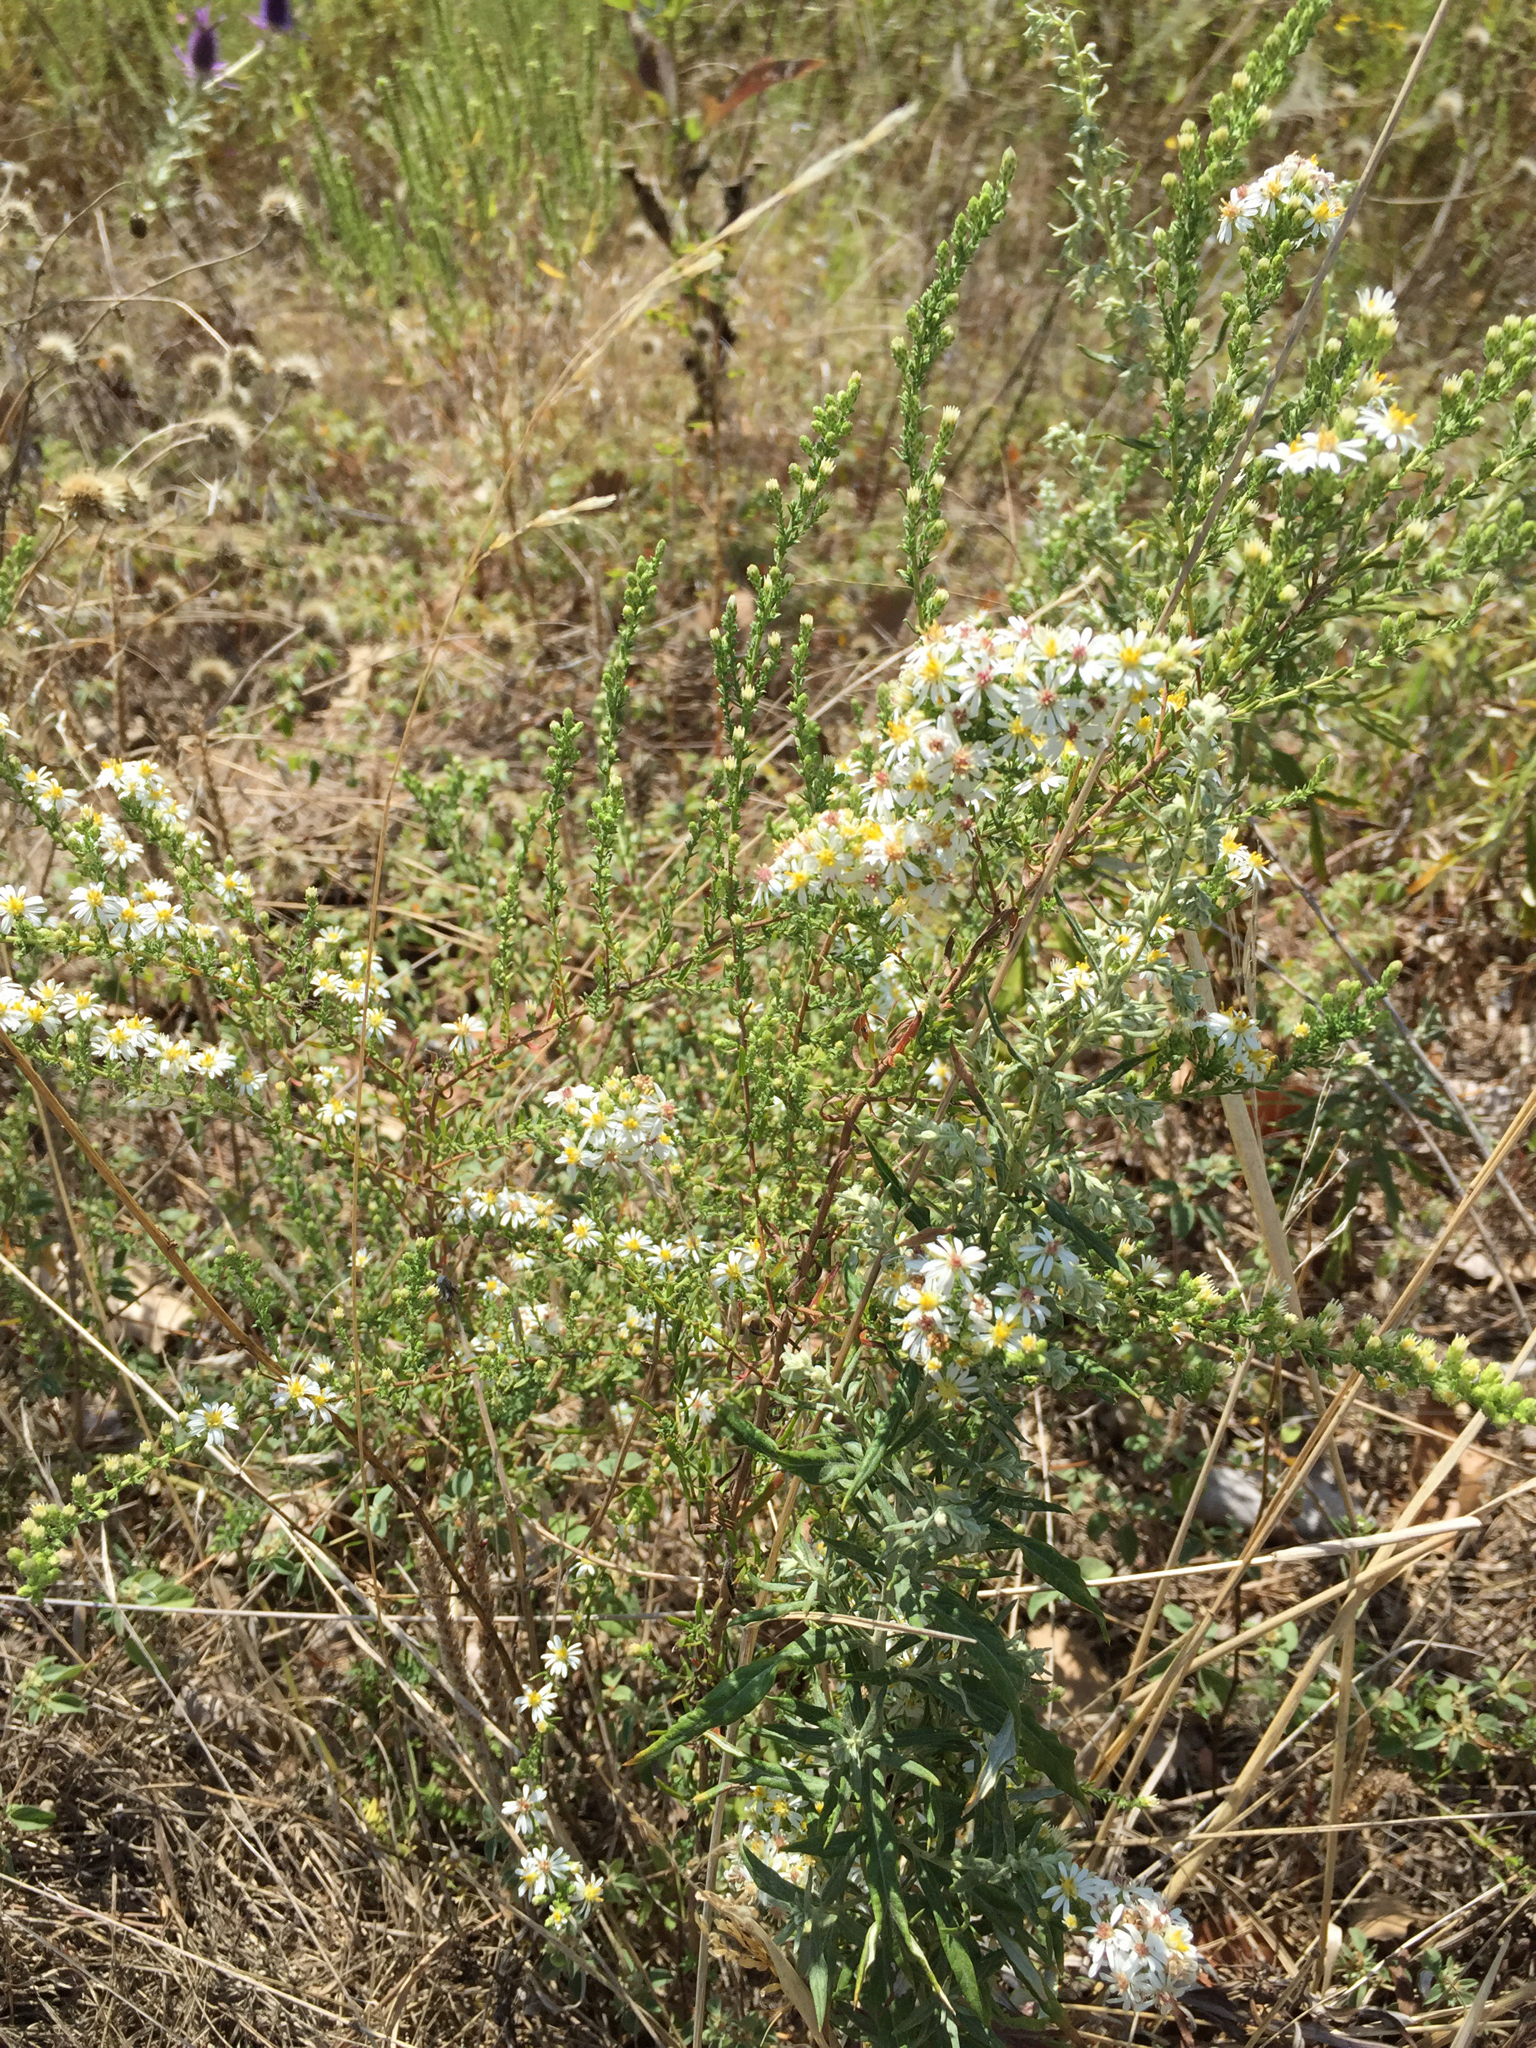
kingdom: Plantae
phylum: Tracheophyta
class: Magnoliopsida
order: Asterales
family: Asteraceae
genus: Symphyotrichum
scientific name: Symphyotrichum ericoides
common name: Heath aster
